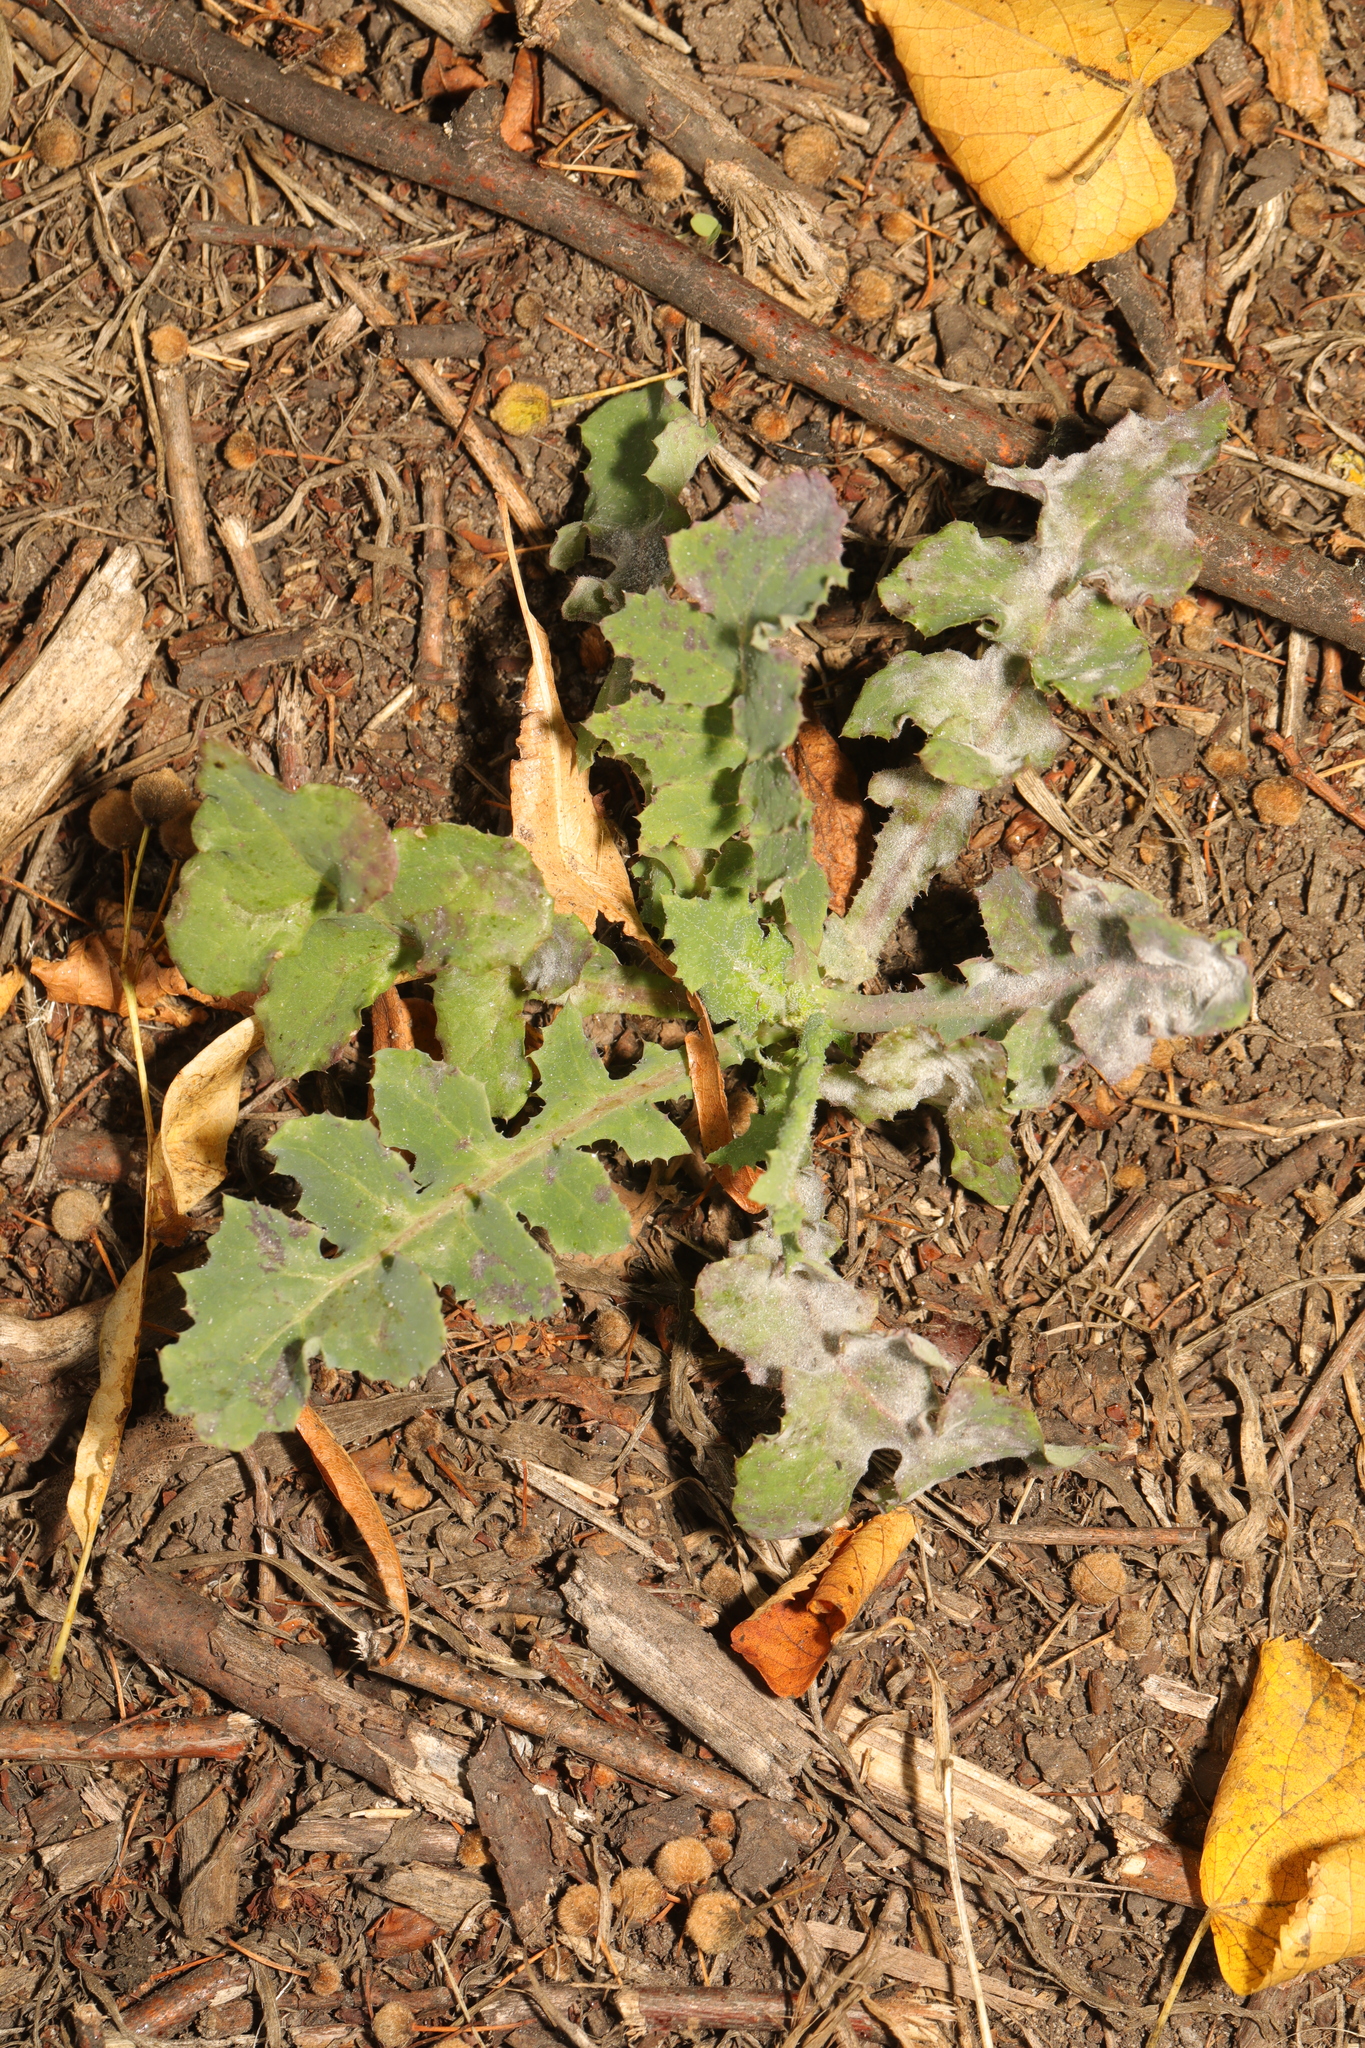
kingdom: Plantae
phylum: Tracheophyta
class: Magnoliopsida
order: Asterales
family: Asteraceae
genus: Sonchus
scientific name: Sonchus oleraceus
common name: Common sowthistle
